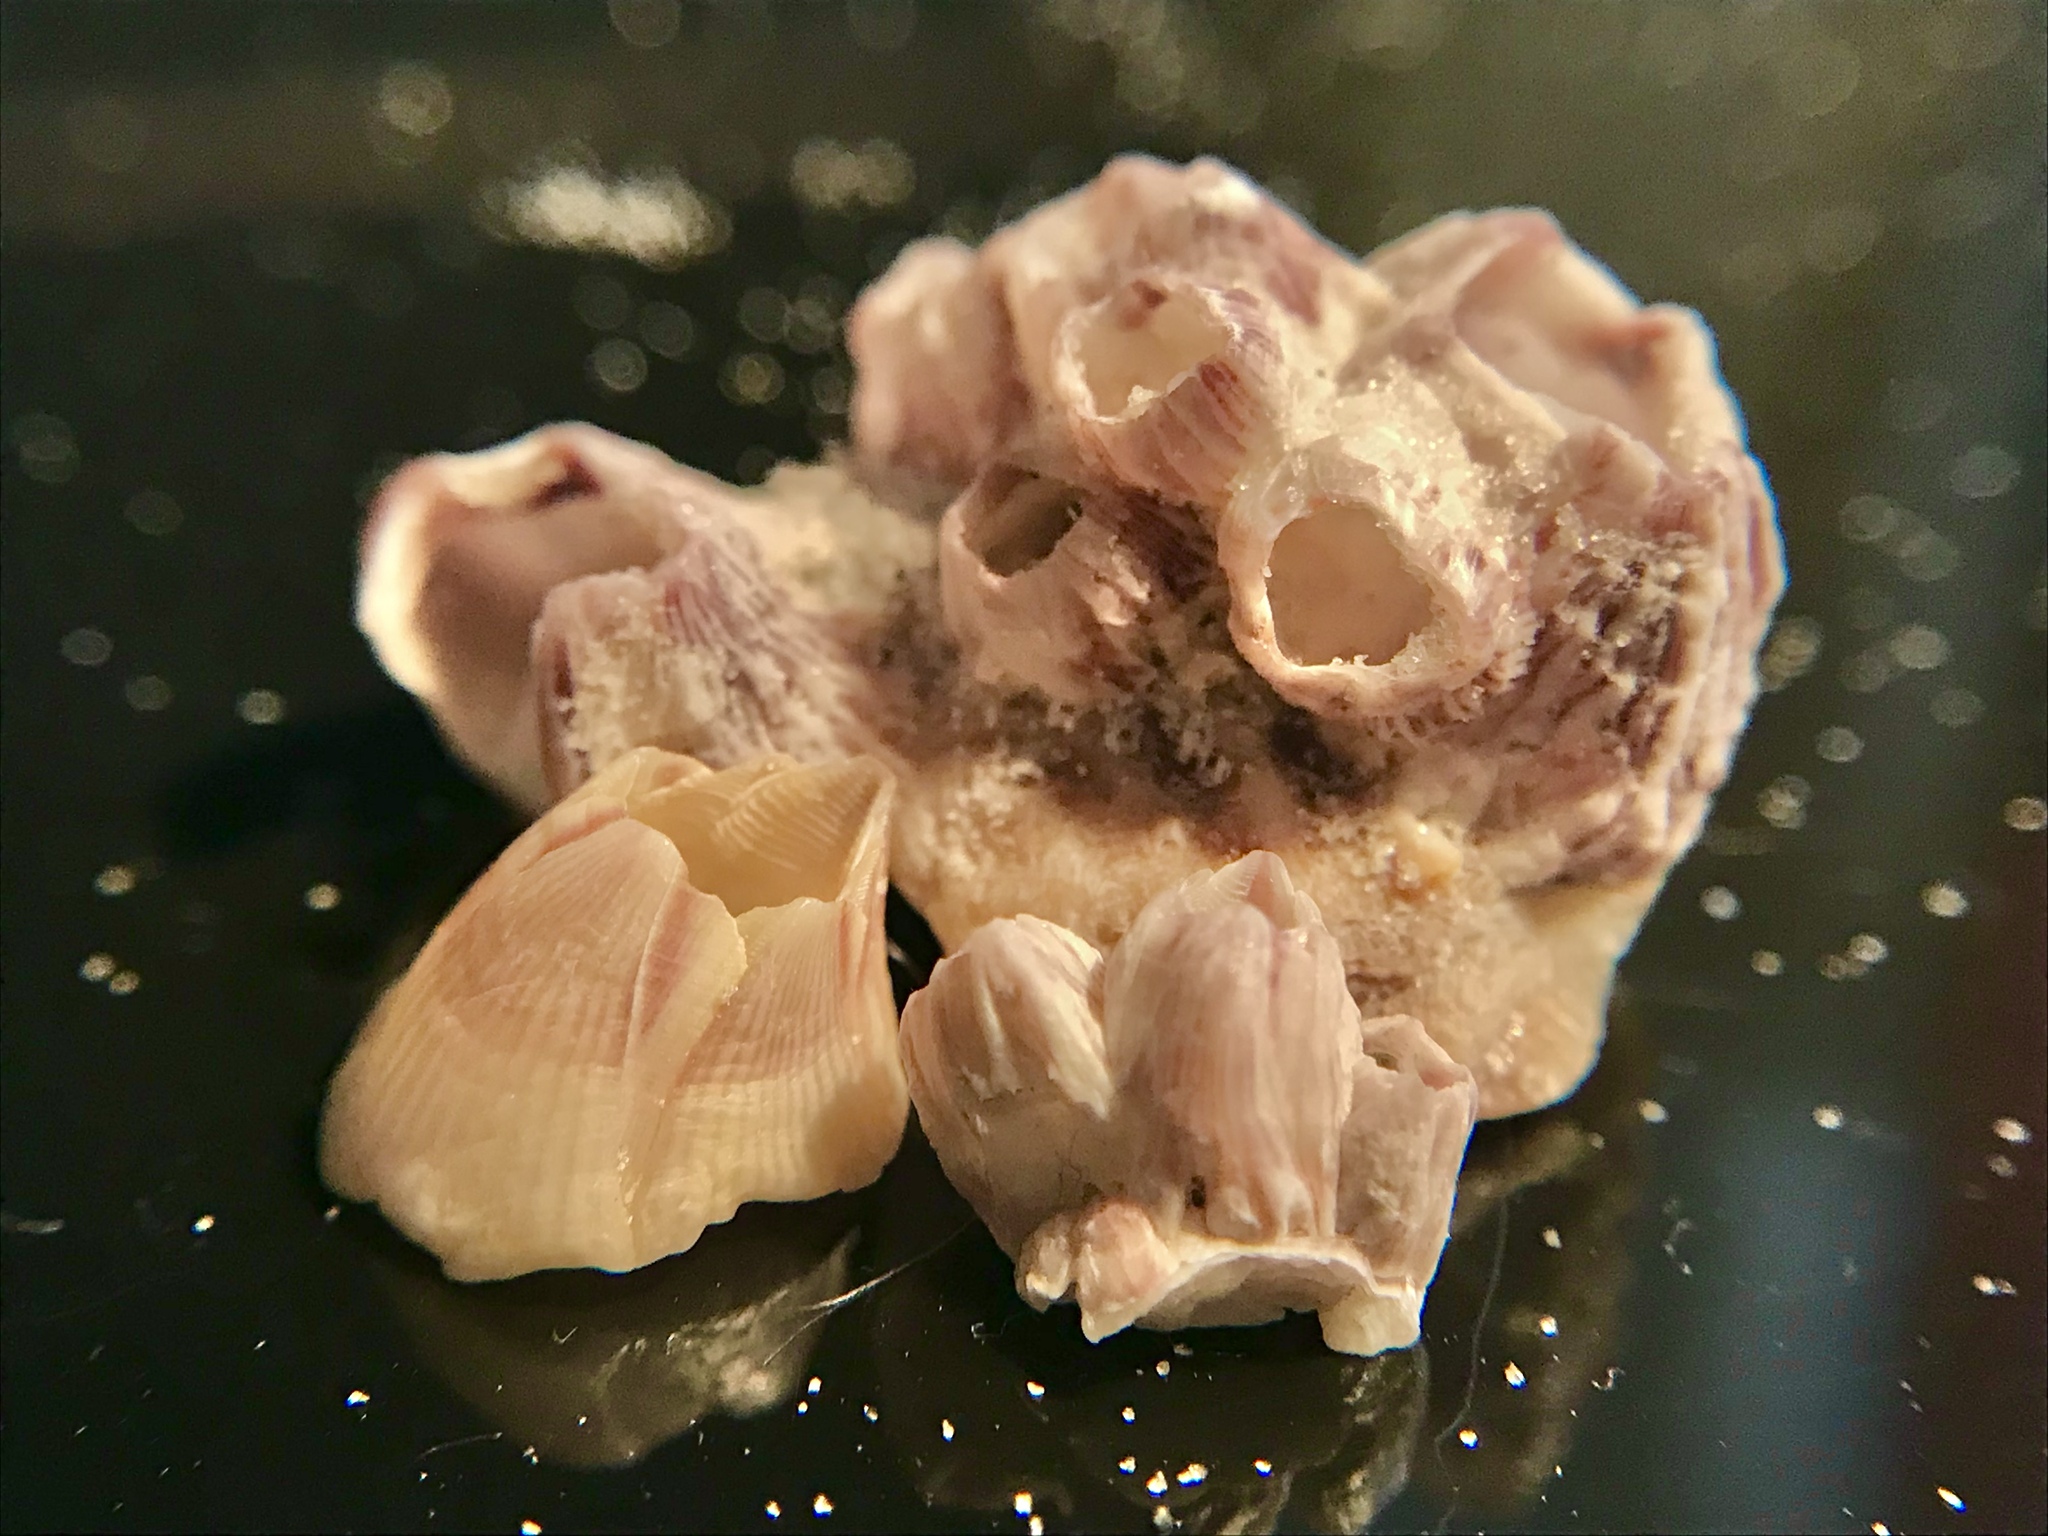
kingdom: Animalia
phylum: Arthropoda
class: Maxillopoda
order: Sessilia
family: Balanidae
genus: Balanus
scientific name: Balanus trigonus
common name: Triangle barnacle
